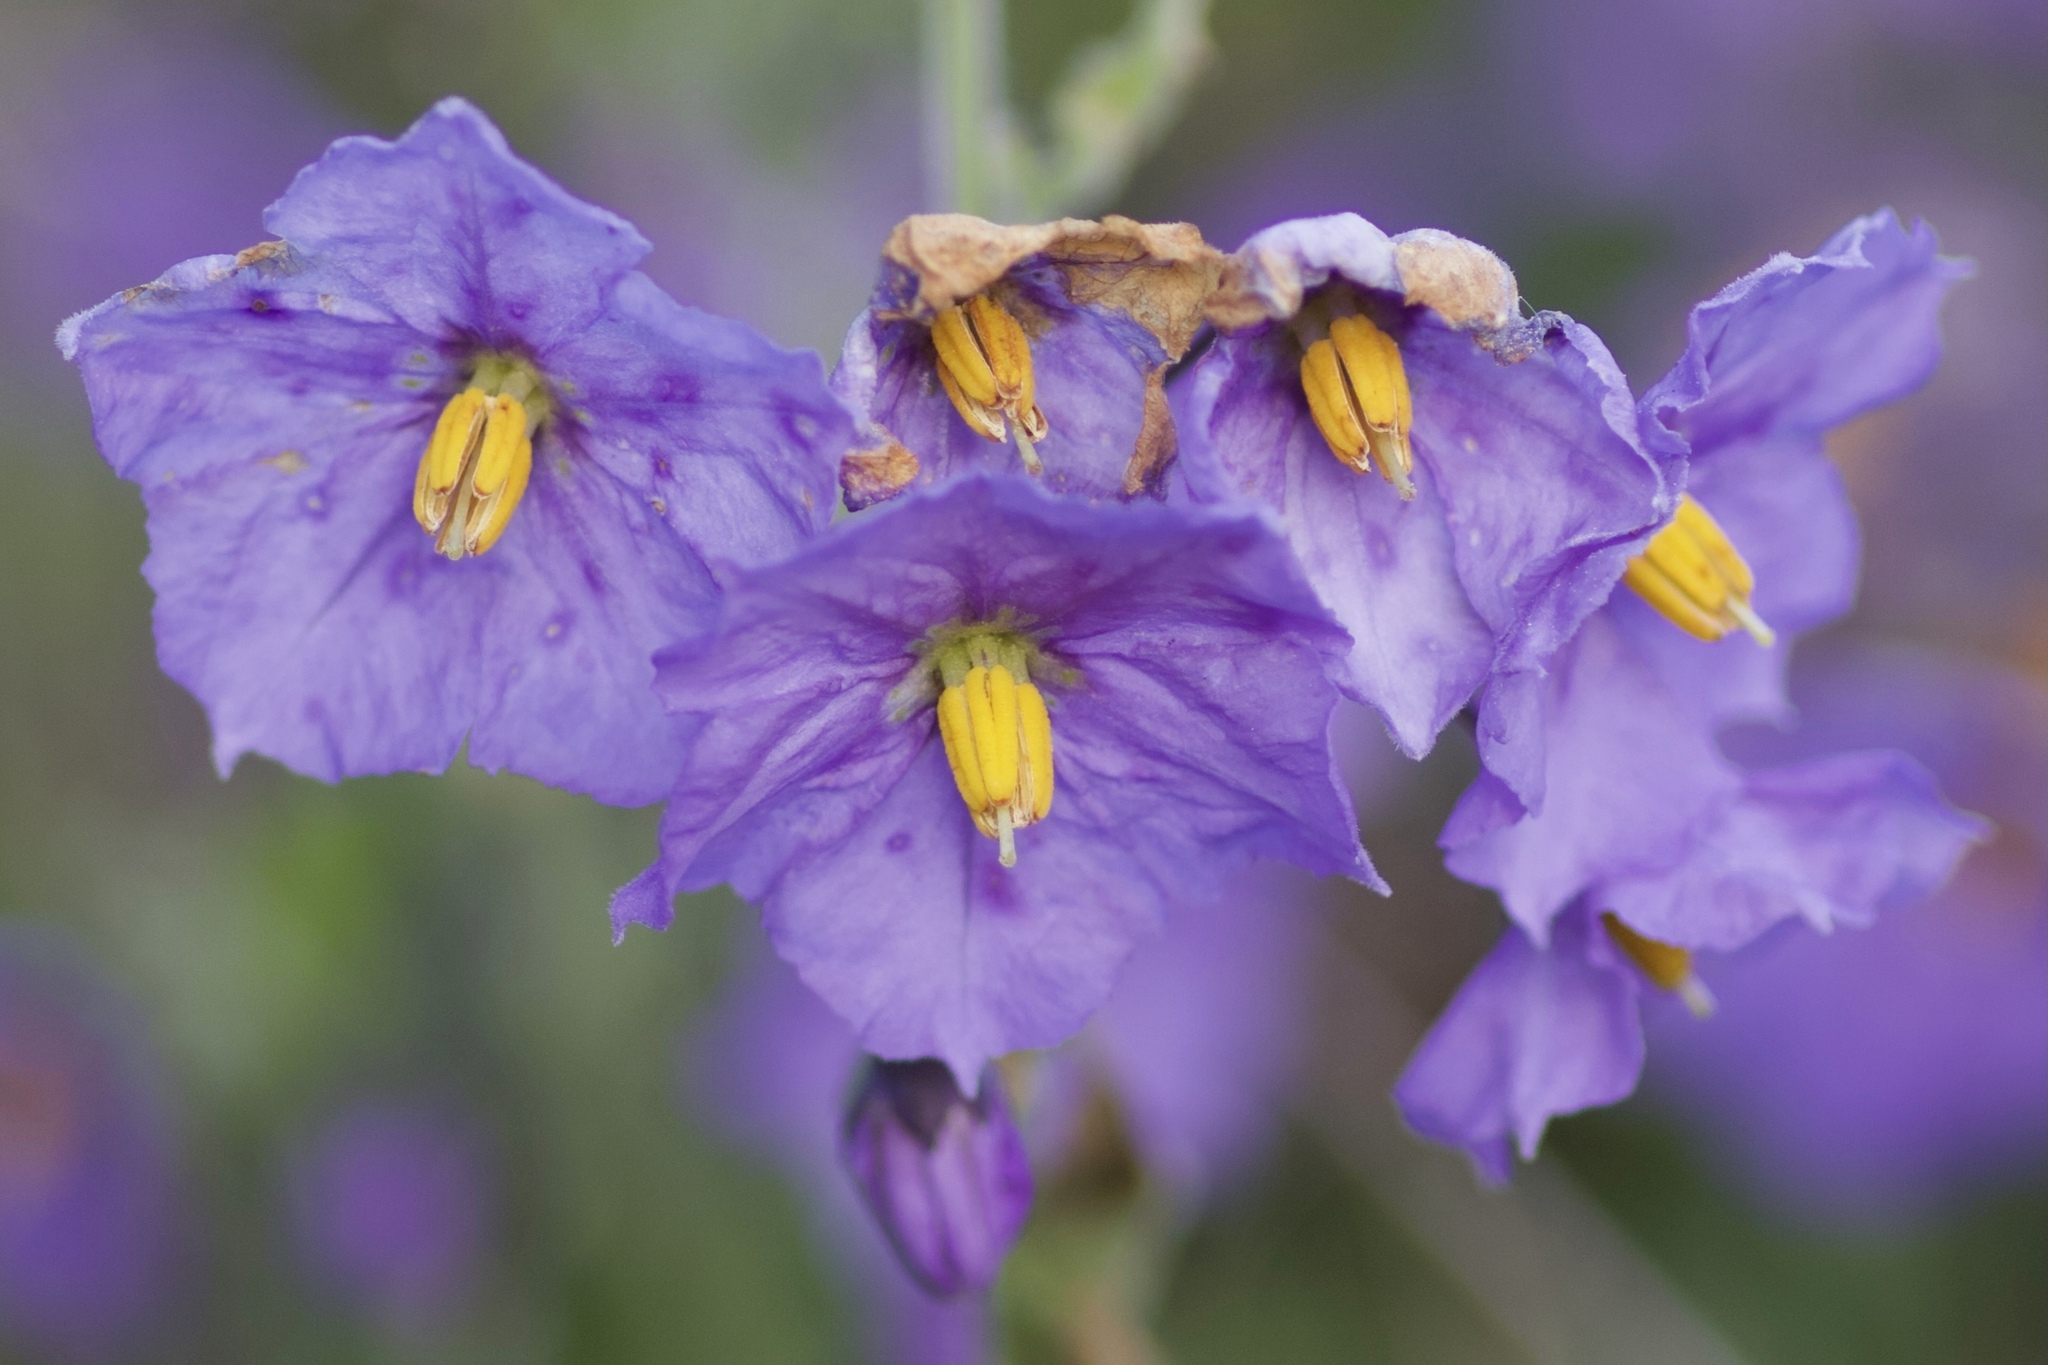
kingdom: Plantae
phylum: Tracheophyta
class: Magnoliopsida
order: Solanales
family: Solanaceae
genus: Solanum
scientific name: Solanum umbelliferum
